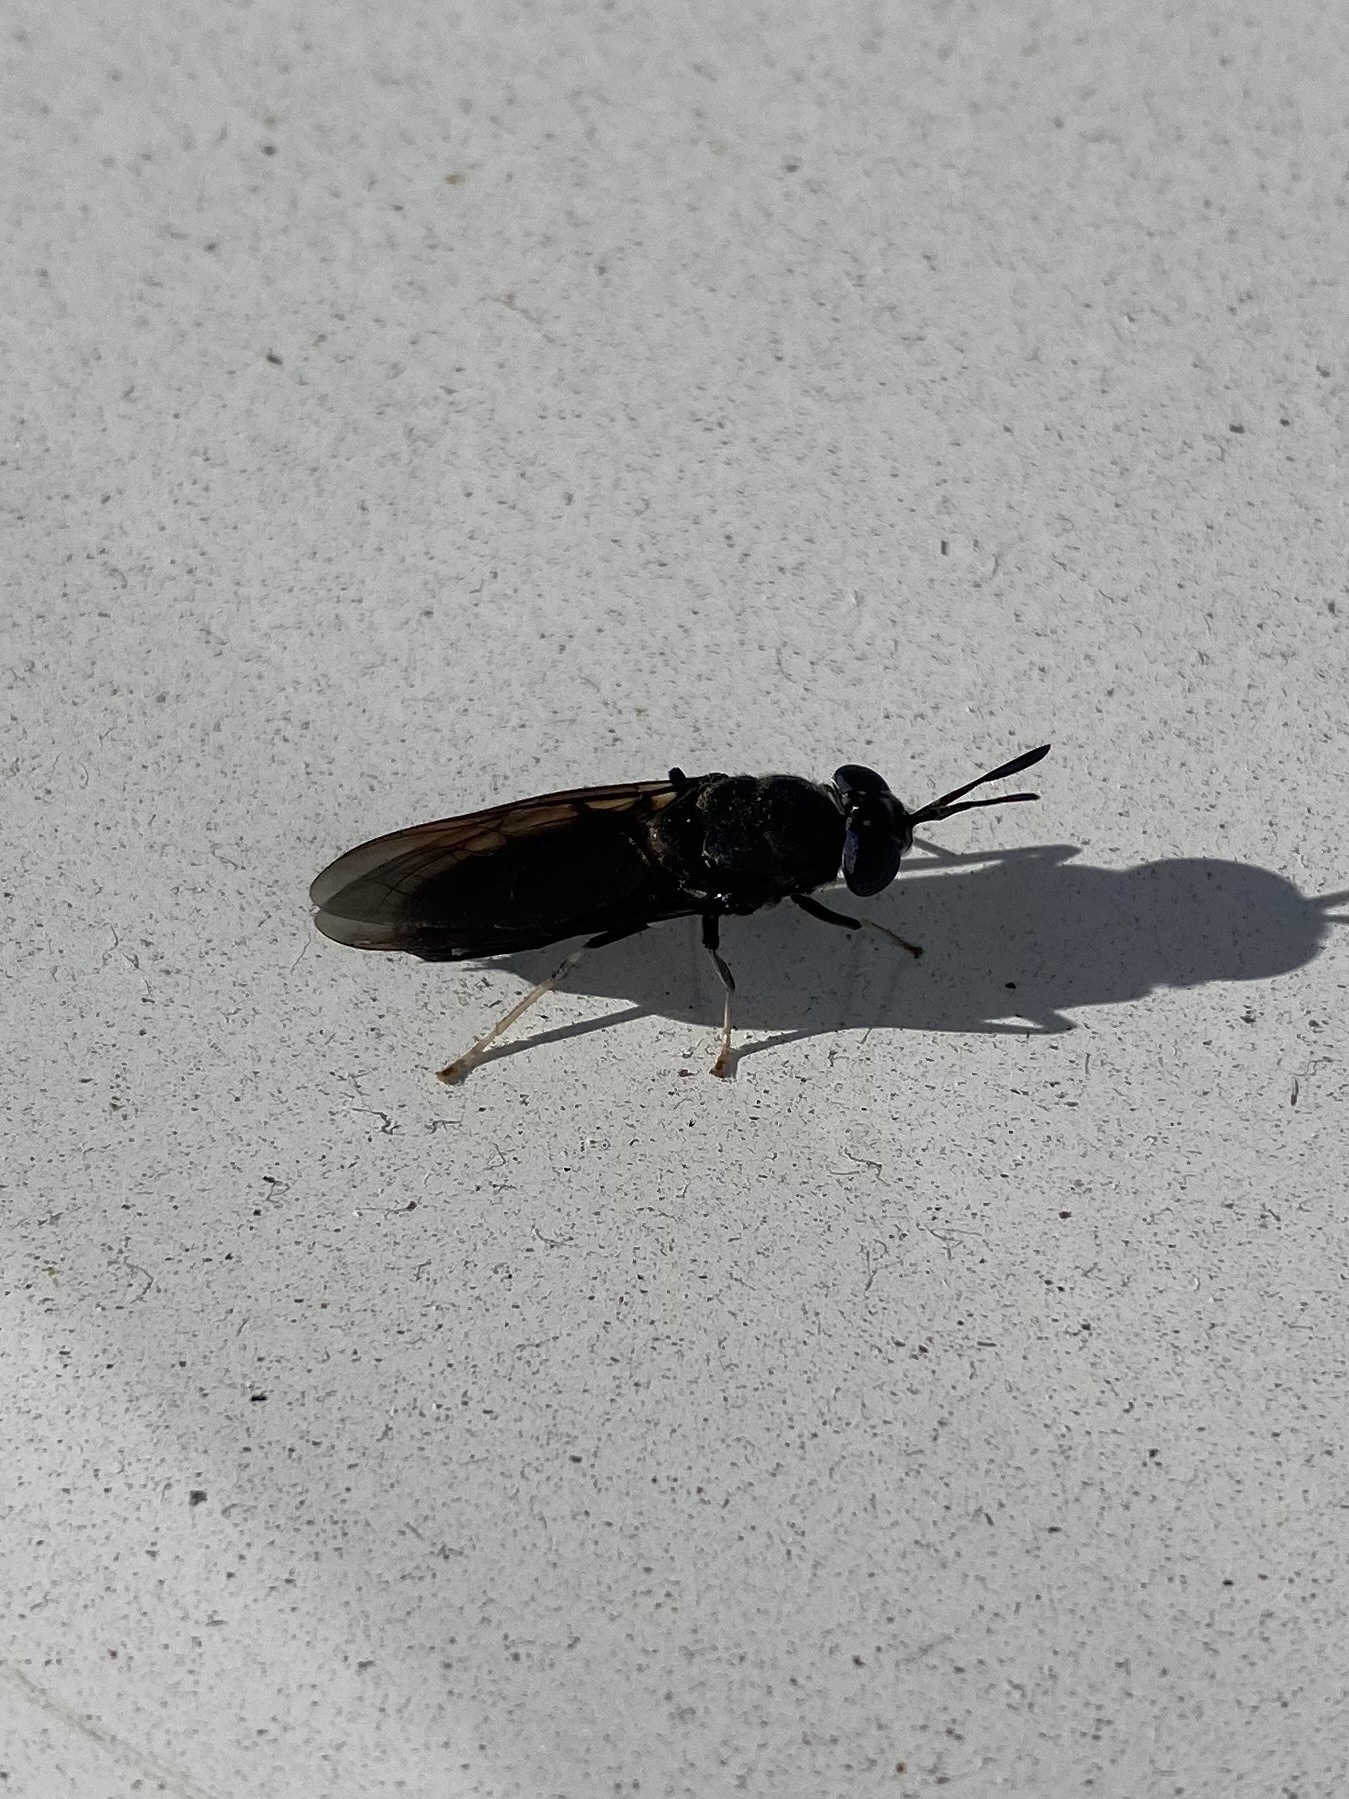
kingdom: Animalia
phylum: Arthropoda
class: Insecta
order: Diptera
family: Stratiomyidae
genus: Hermetia
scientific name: Hermetia illucens
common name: Black soldier fly
